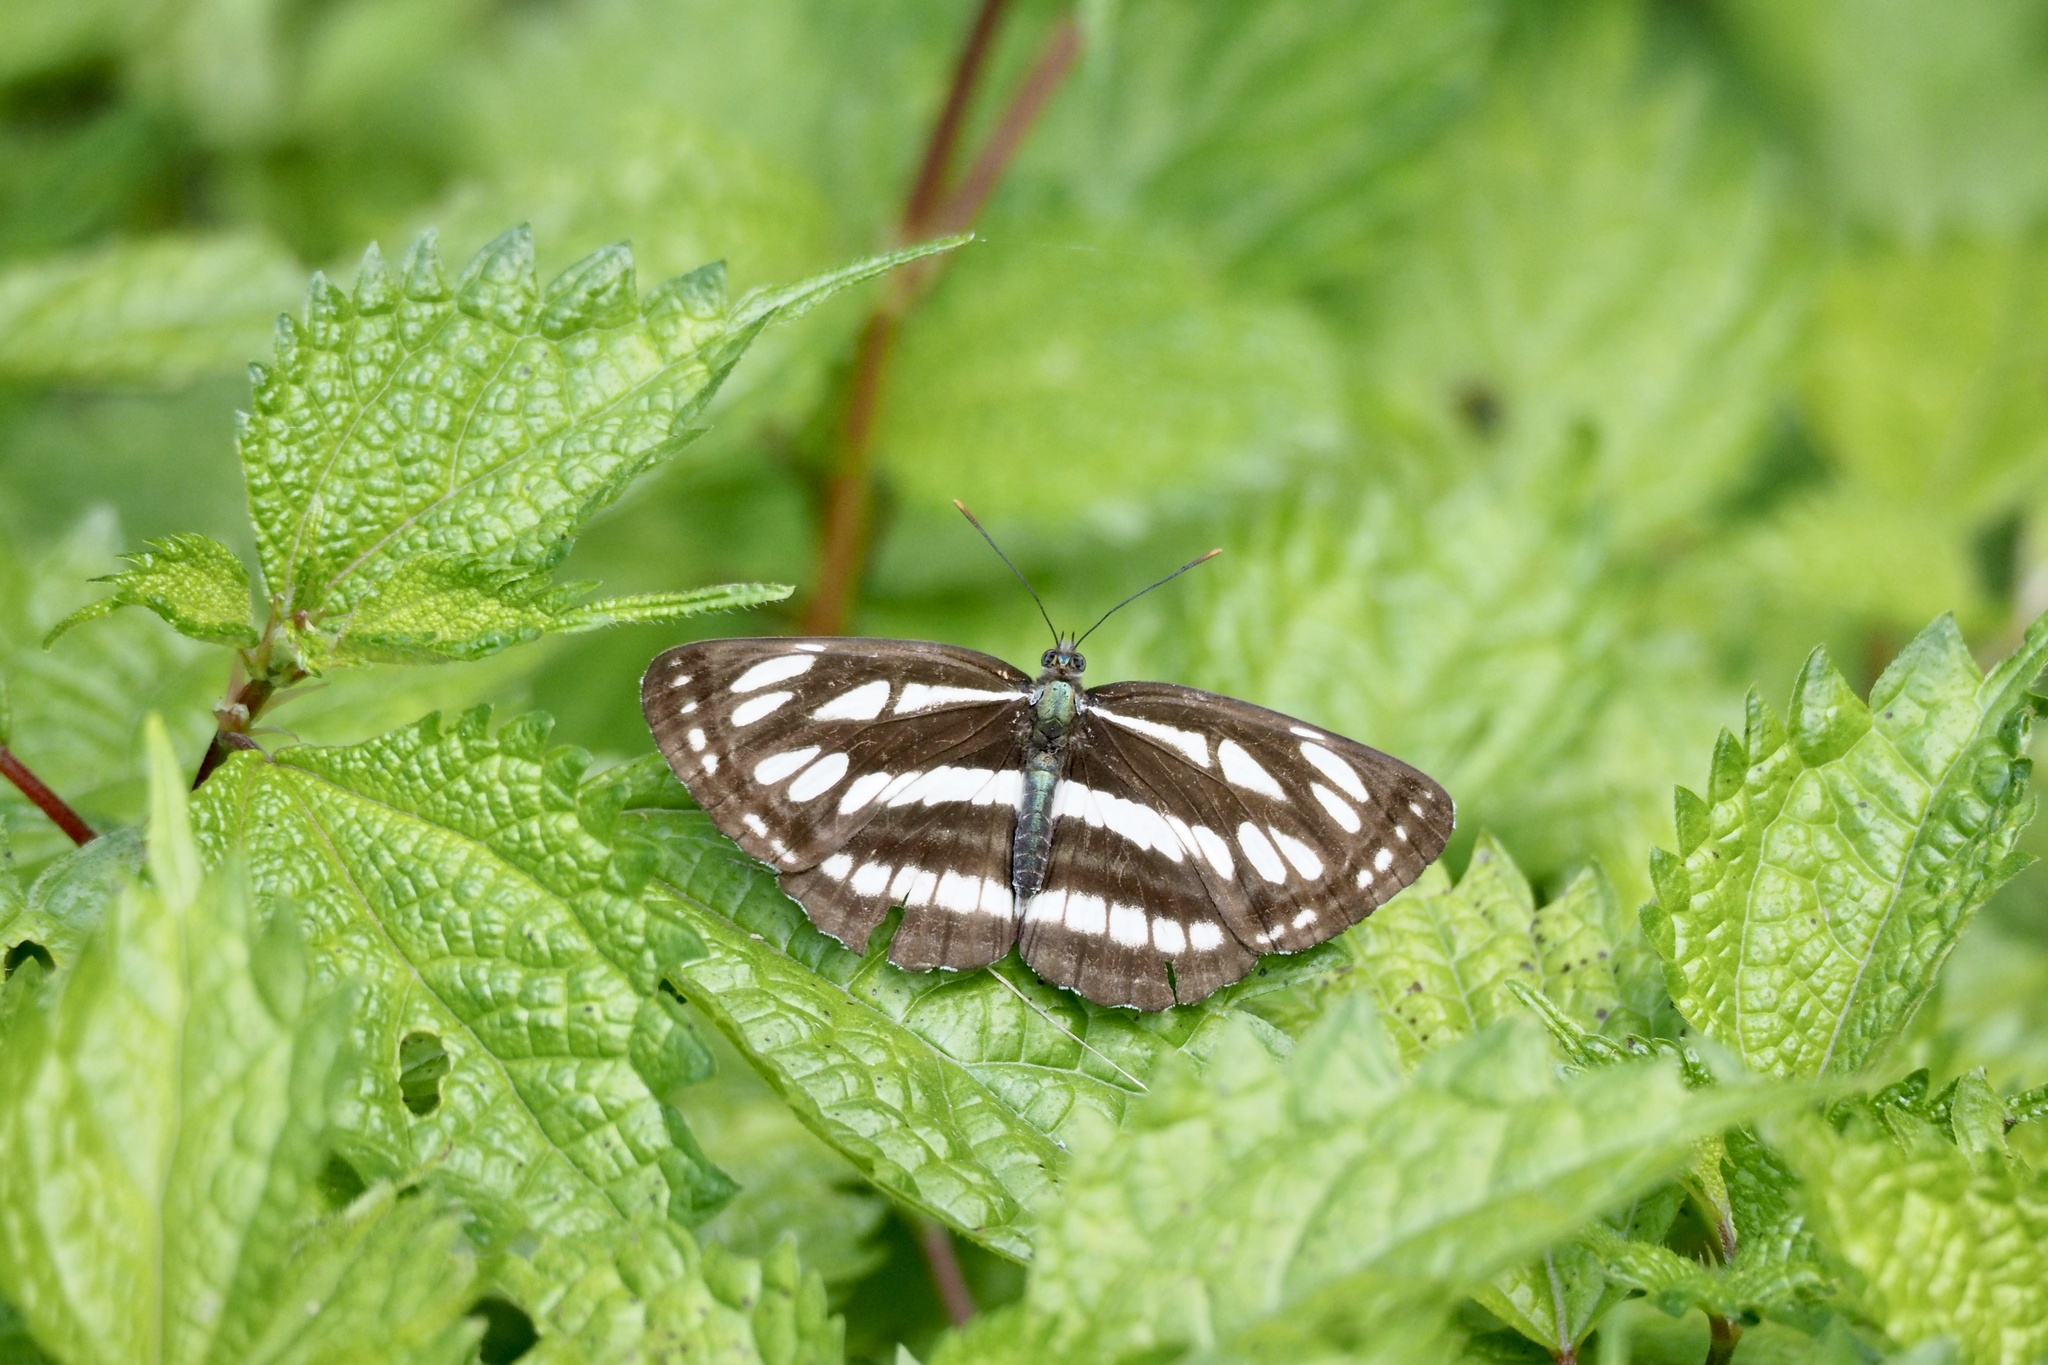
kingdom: Animalia
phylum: Arthropoda
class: Insecta
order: Lepidoptera
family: Nymphalidae
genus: Neptis
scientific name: Neptis sappho
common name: Common glider
